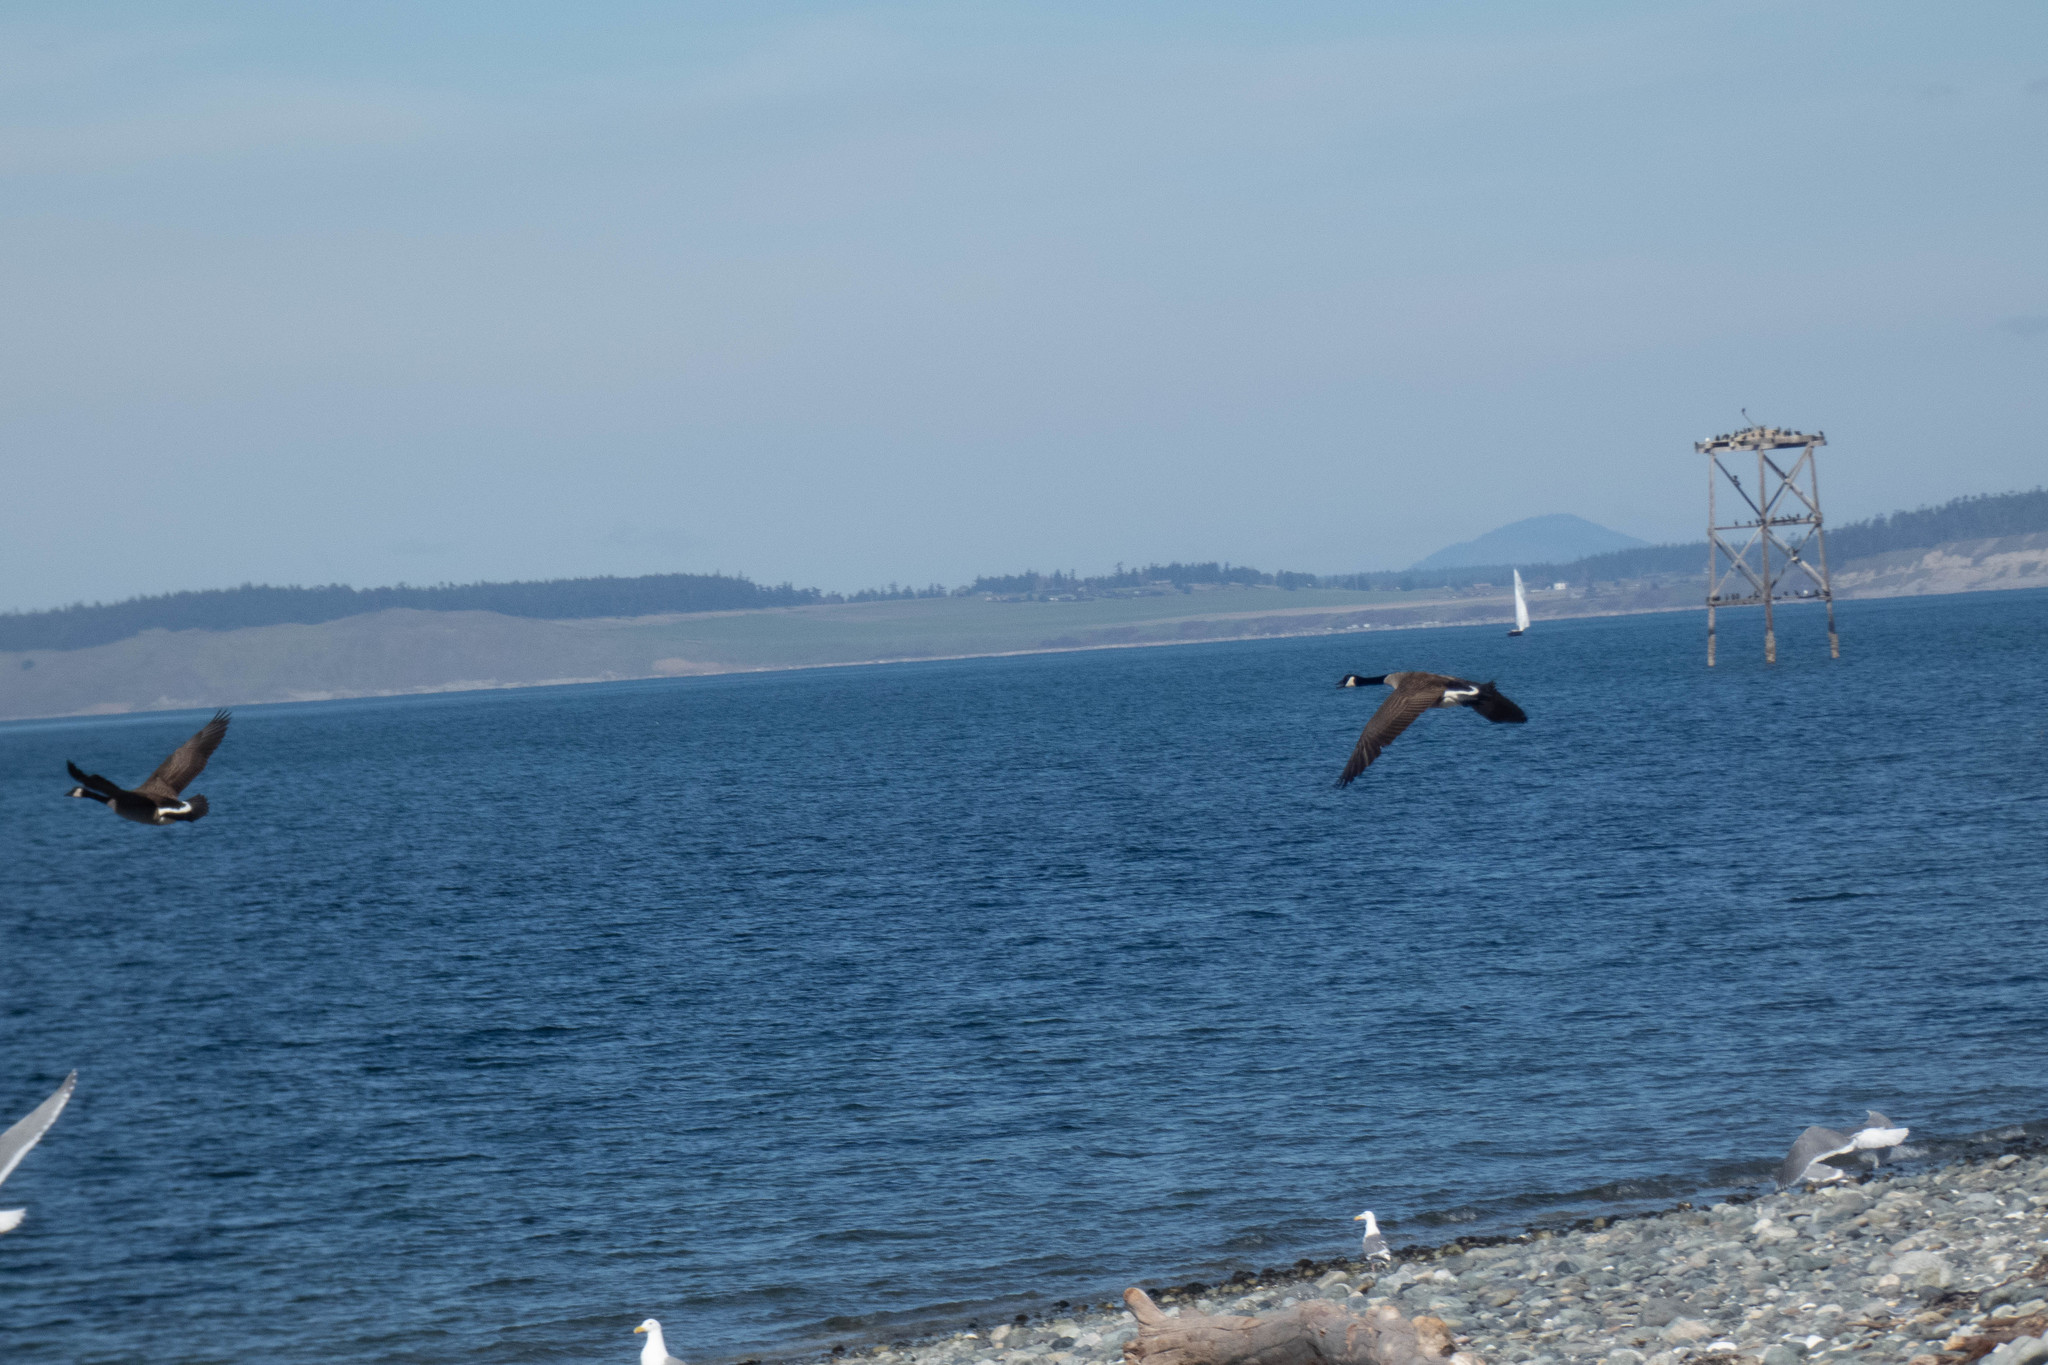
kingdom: Animalia
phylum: Chordata
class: Aves
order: Anseriformes
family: Anatidae
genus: Branta
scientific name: Branta canadensis
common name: Canada goose
